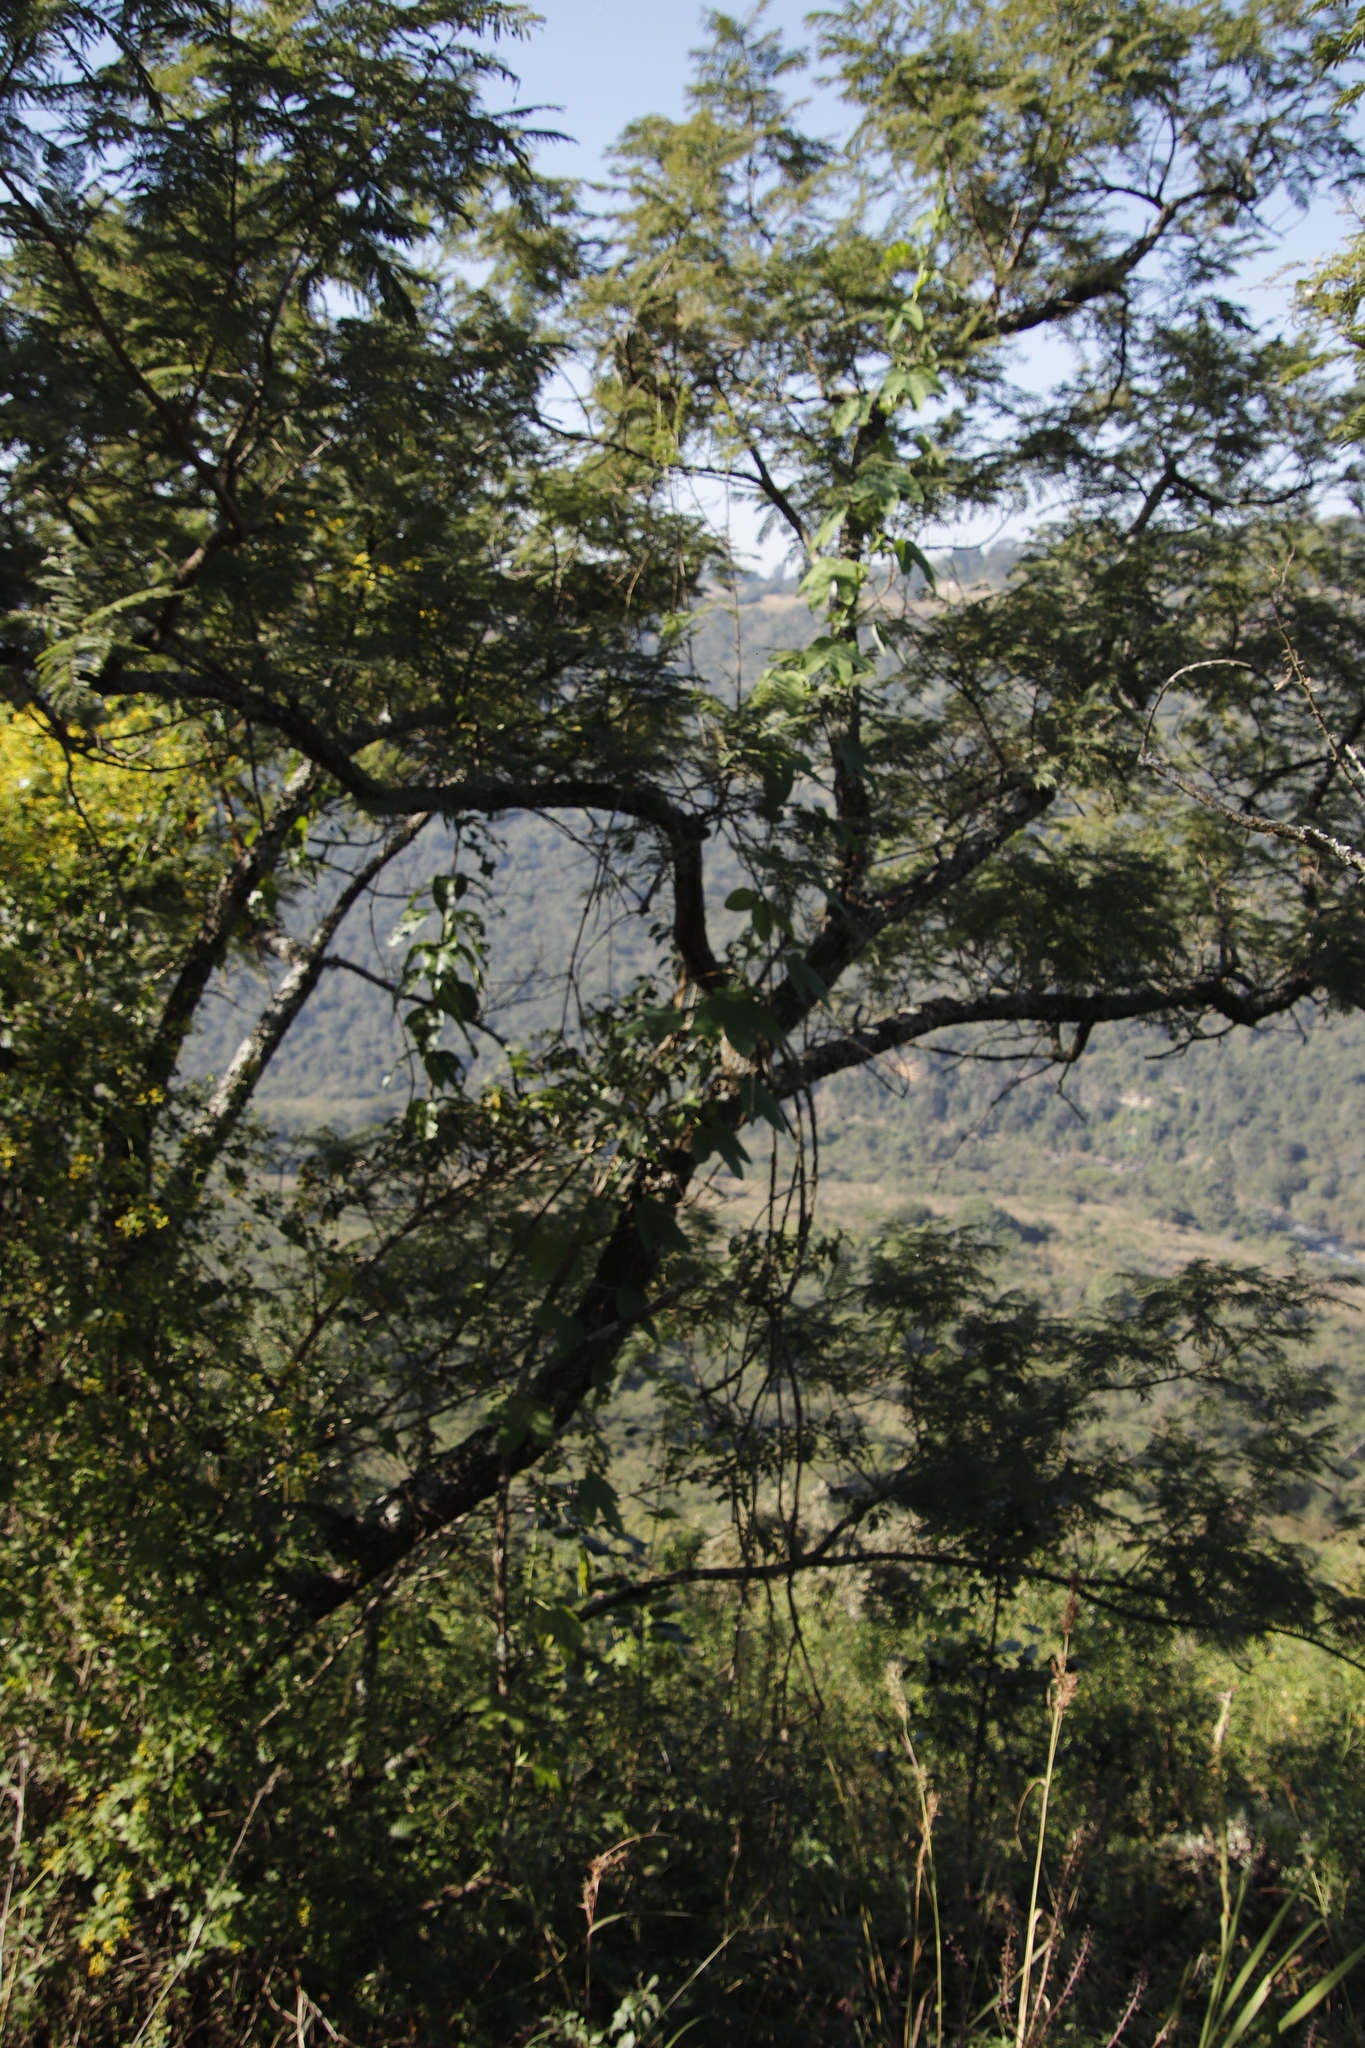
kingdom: Plantae
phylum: Tracheophyta
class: Magnoliopsida
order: Malpighiales
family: Passifloraceae
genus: Passiflora
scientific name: Passiflora subpeltata
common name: White passionflower
